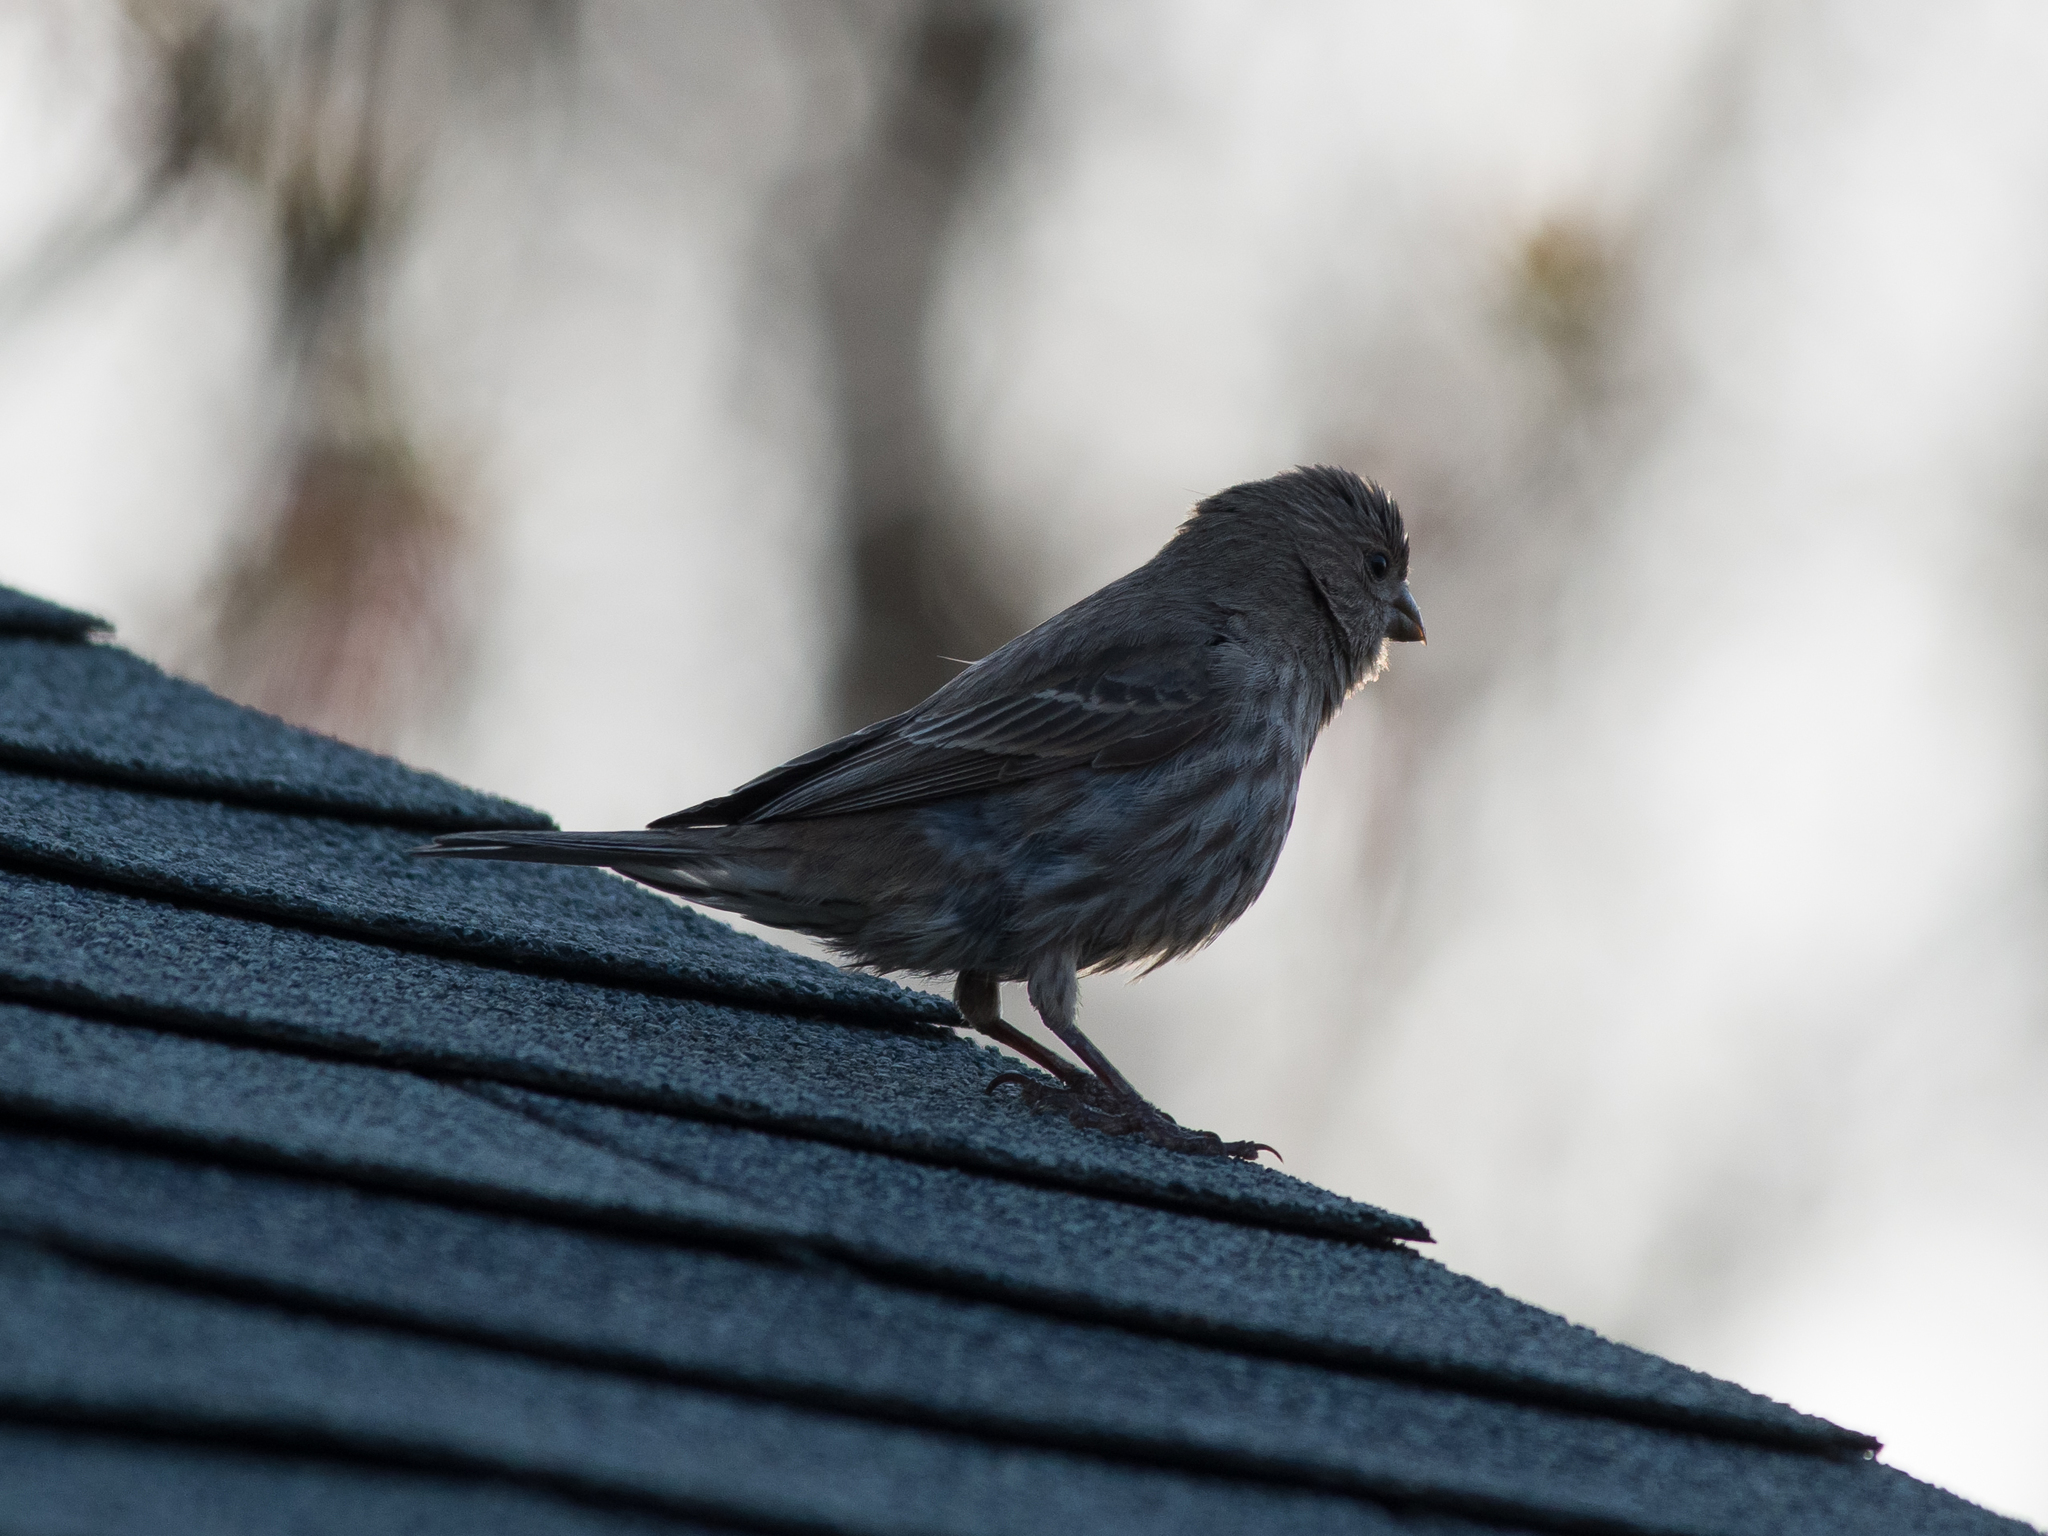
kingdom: Animalia
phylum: Chordata
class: Aves
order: Passeriformes
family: Fringillidae
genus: Haemorhous
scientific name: Haemorhous mexicanus
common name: House finch
